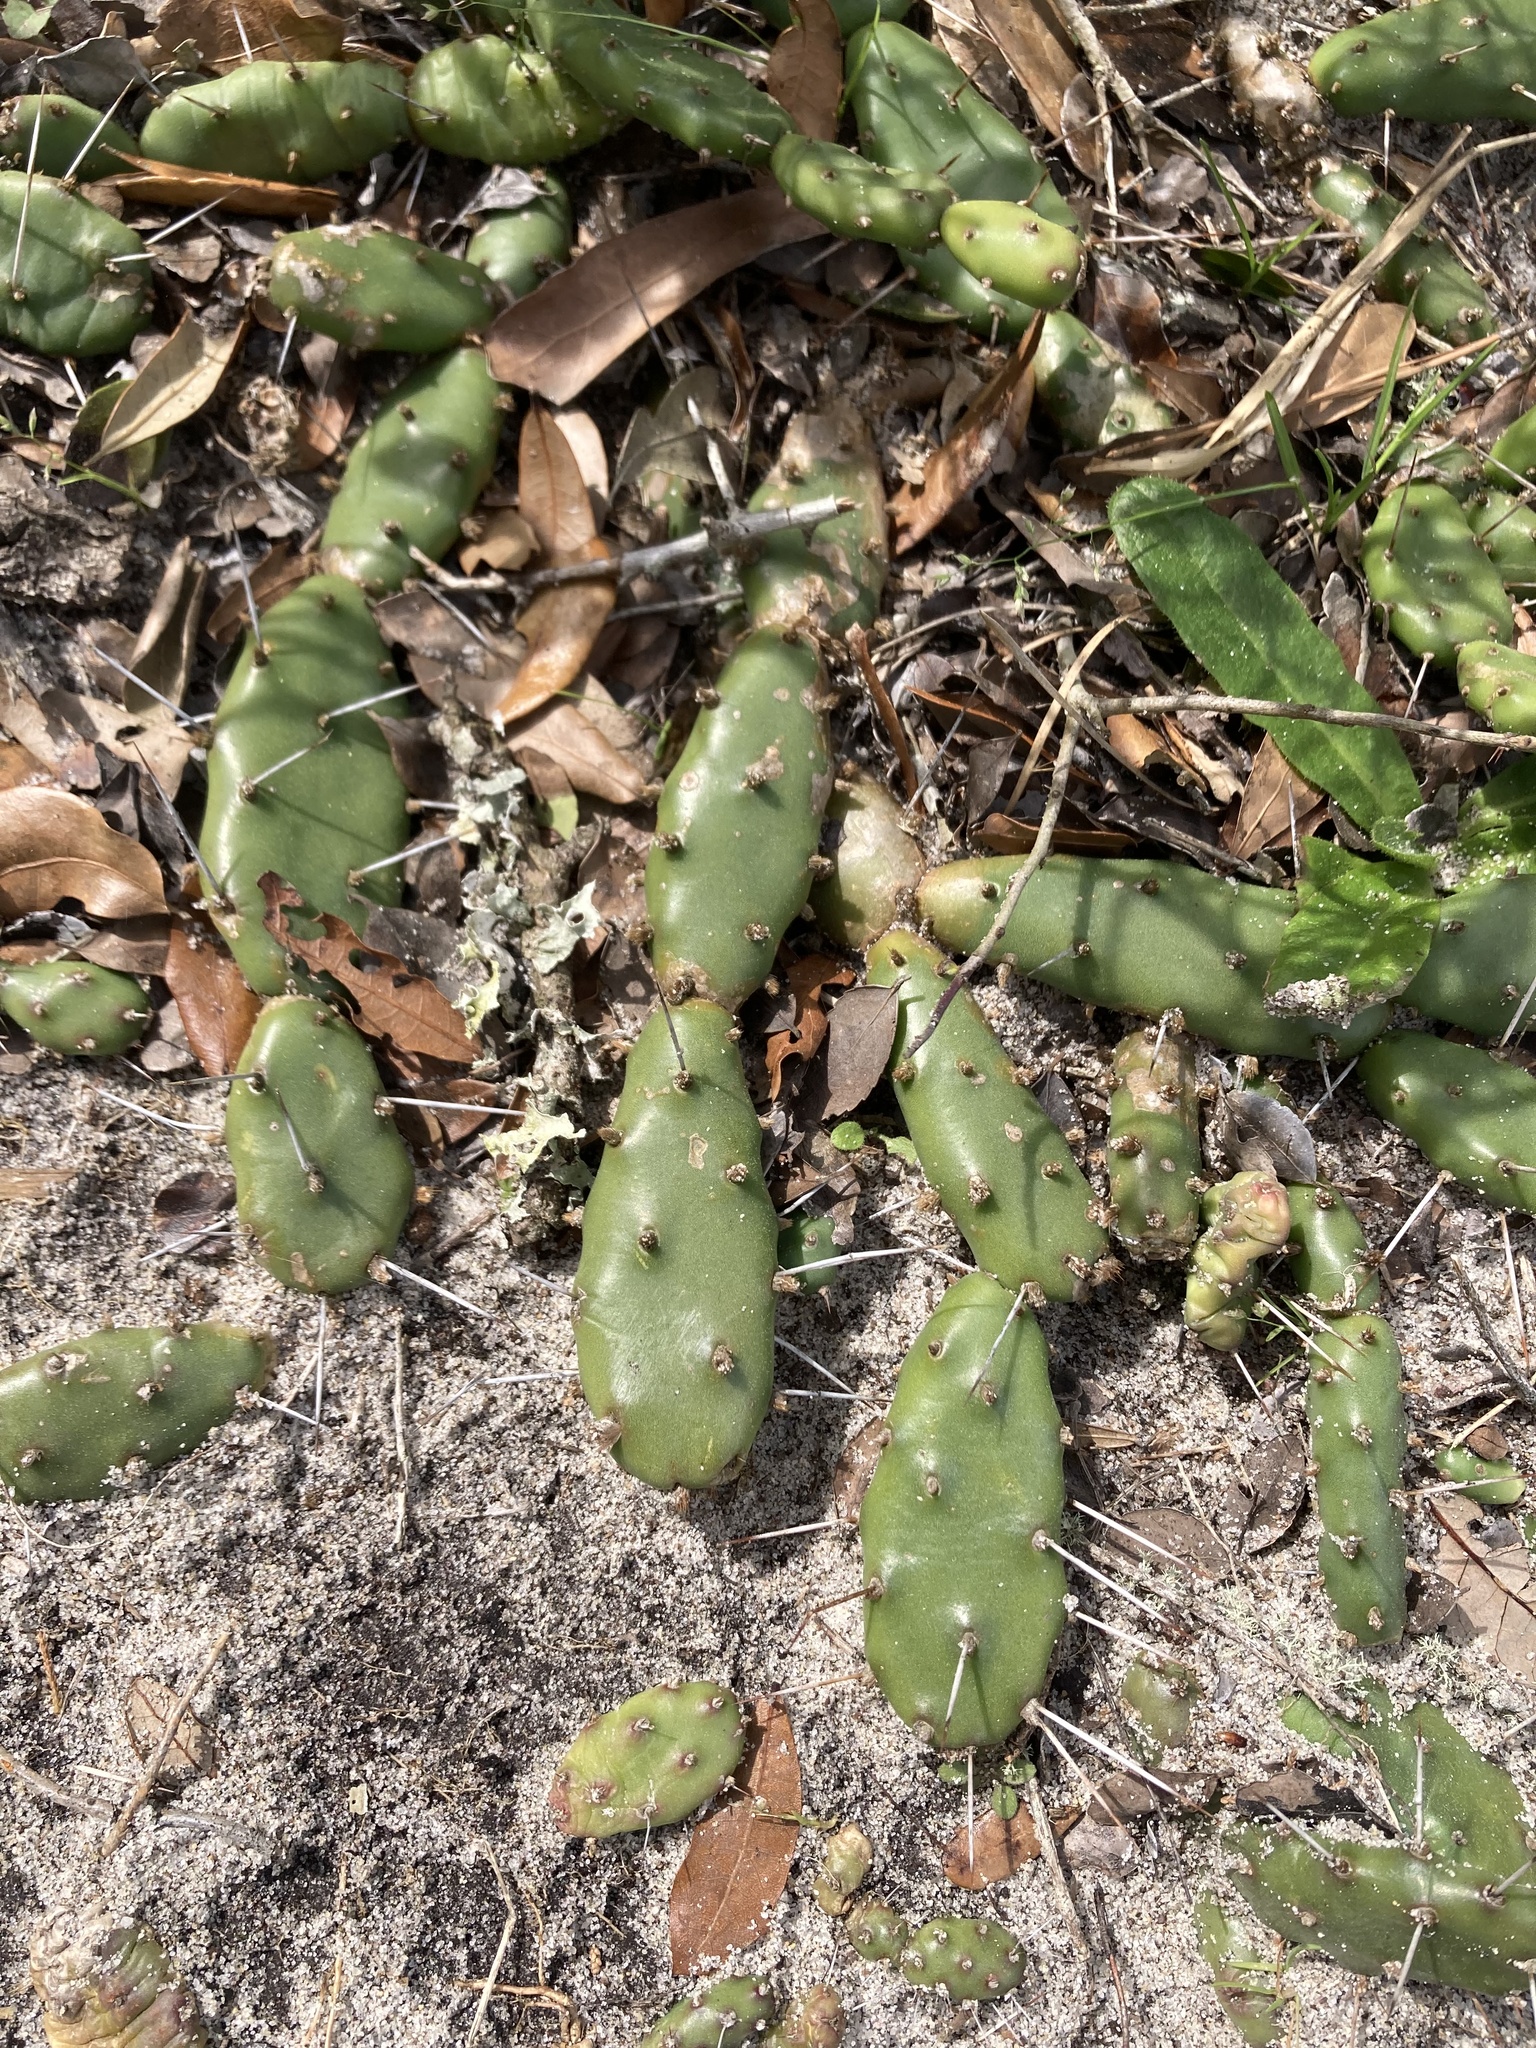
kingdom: Plantae
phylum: Tracheophyta
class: Magnoliopsida
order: Caryophyllales
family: Cactaceae
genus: Opuntia
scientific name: Opuntia drummondii
